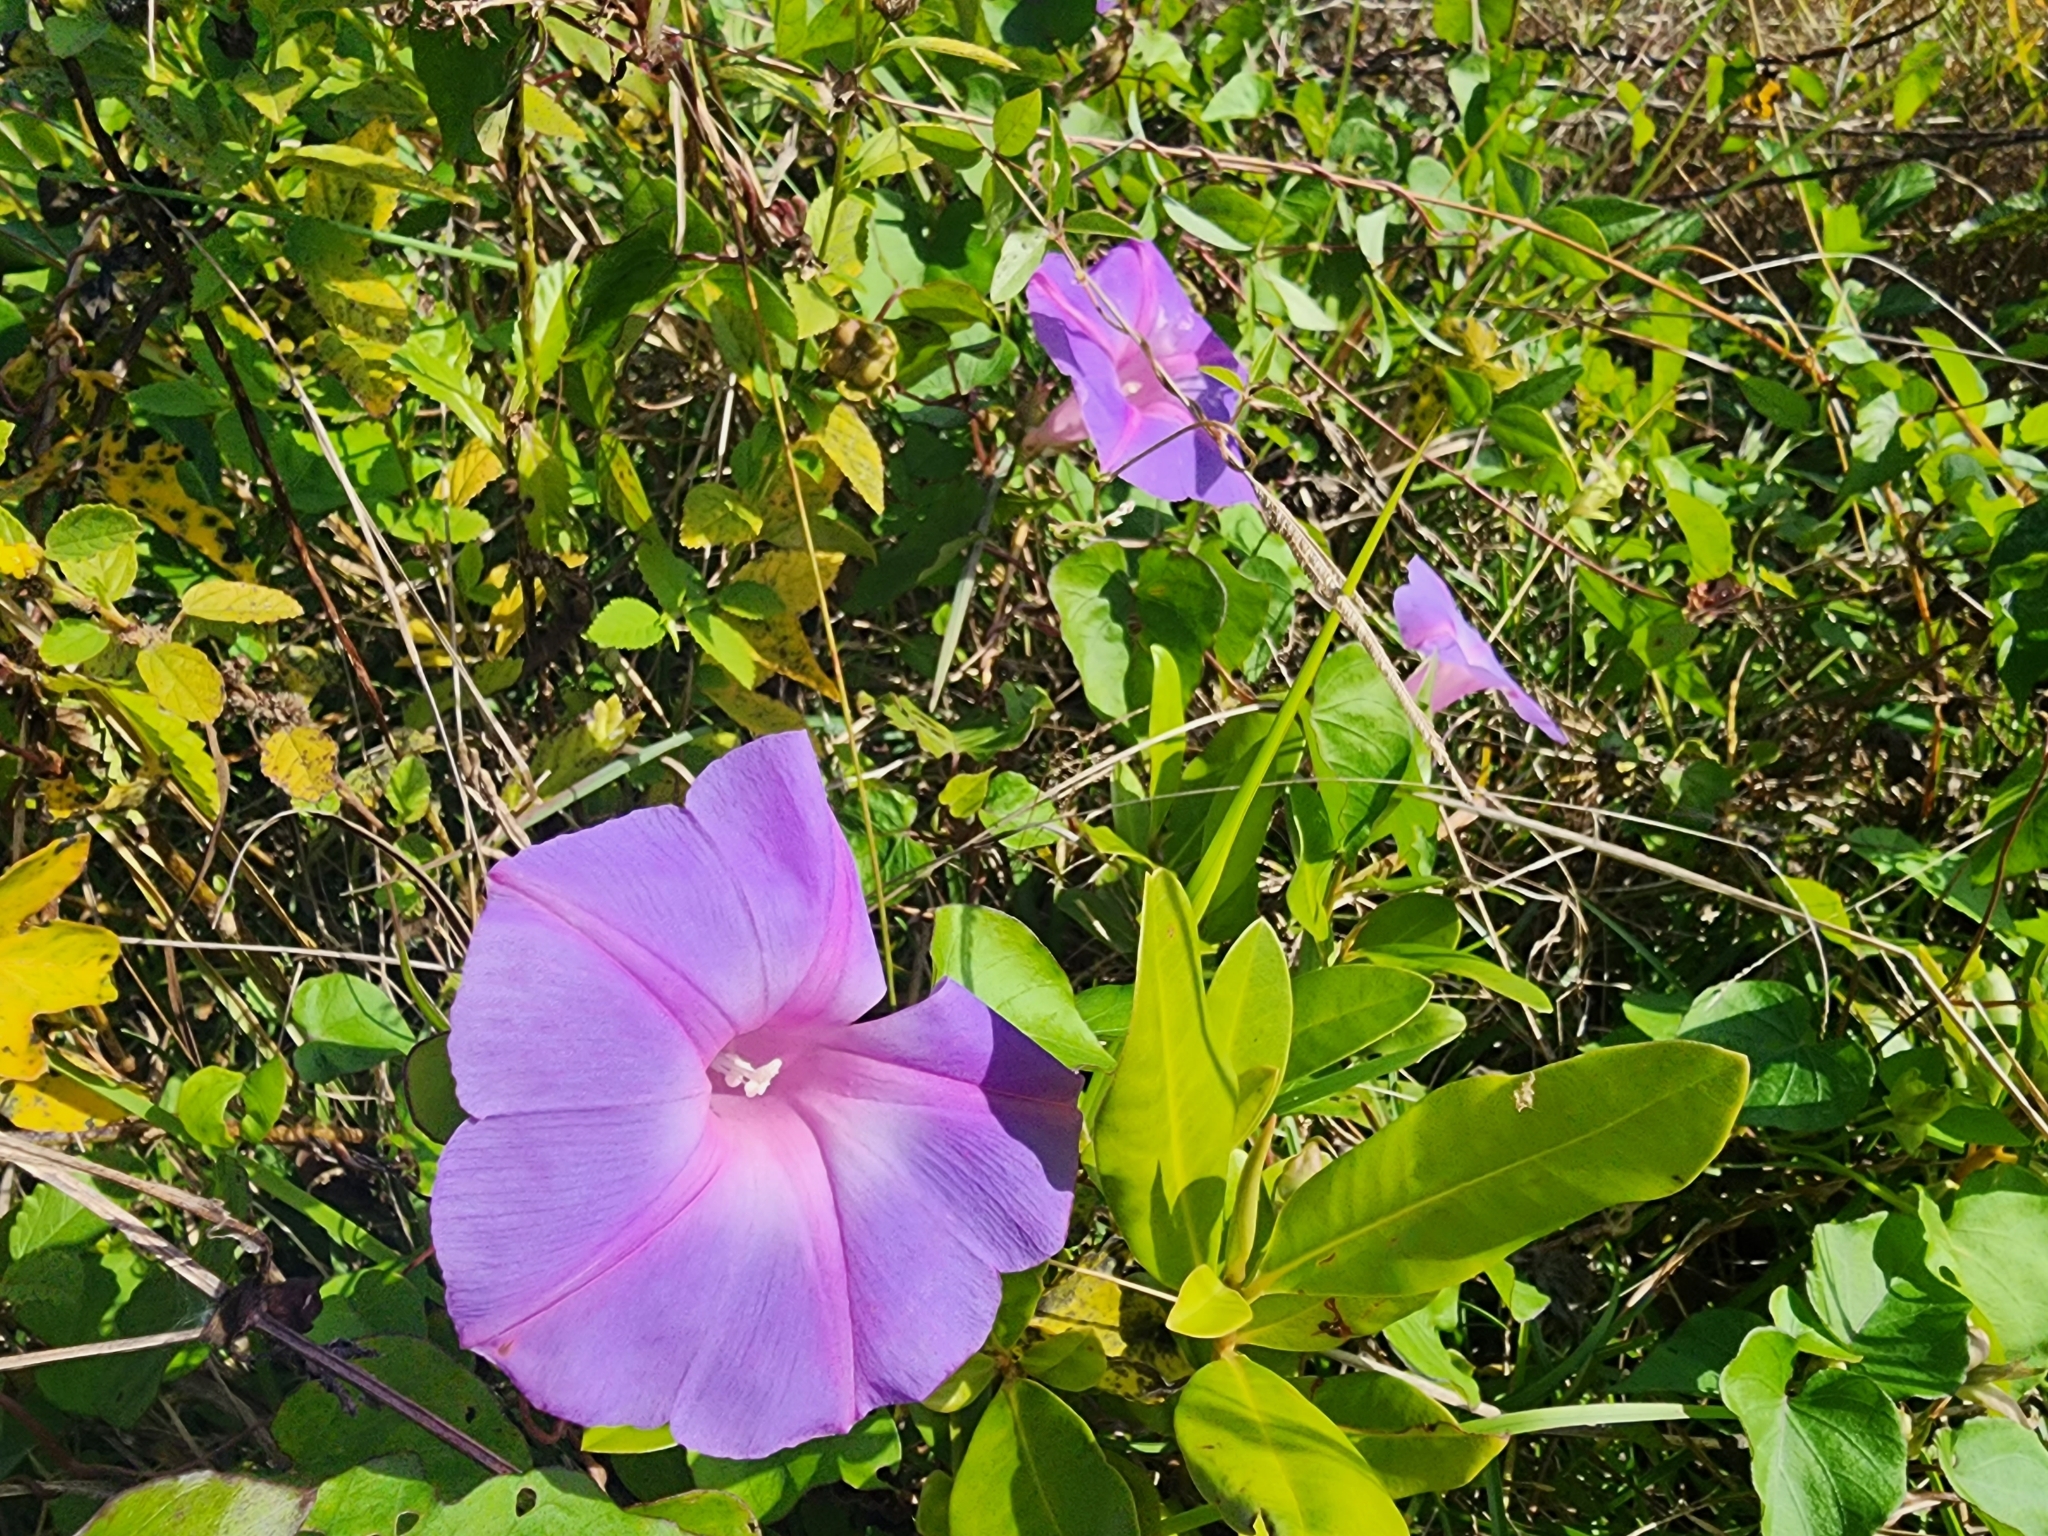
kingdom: Plantae
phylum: Tracheophyta
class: Magnoliopsida
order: Solanales
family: Convolvulaceae
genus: Ipomoea
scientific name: Ipomoea indica
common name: Blue dawnflower
